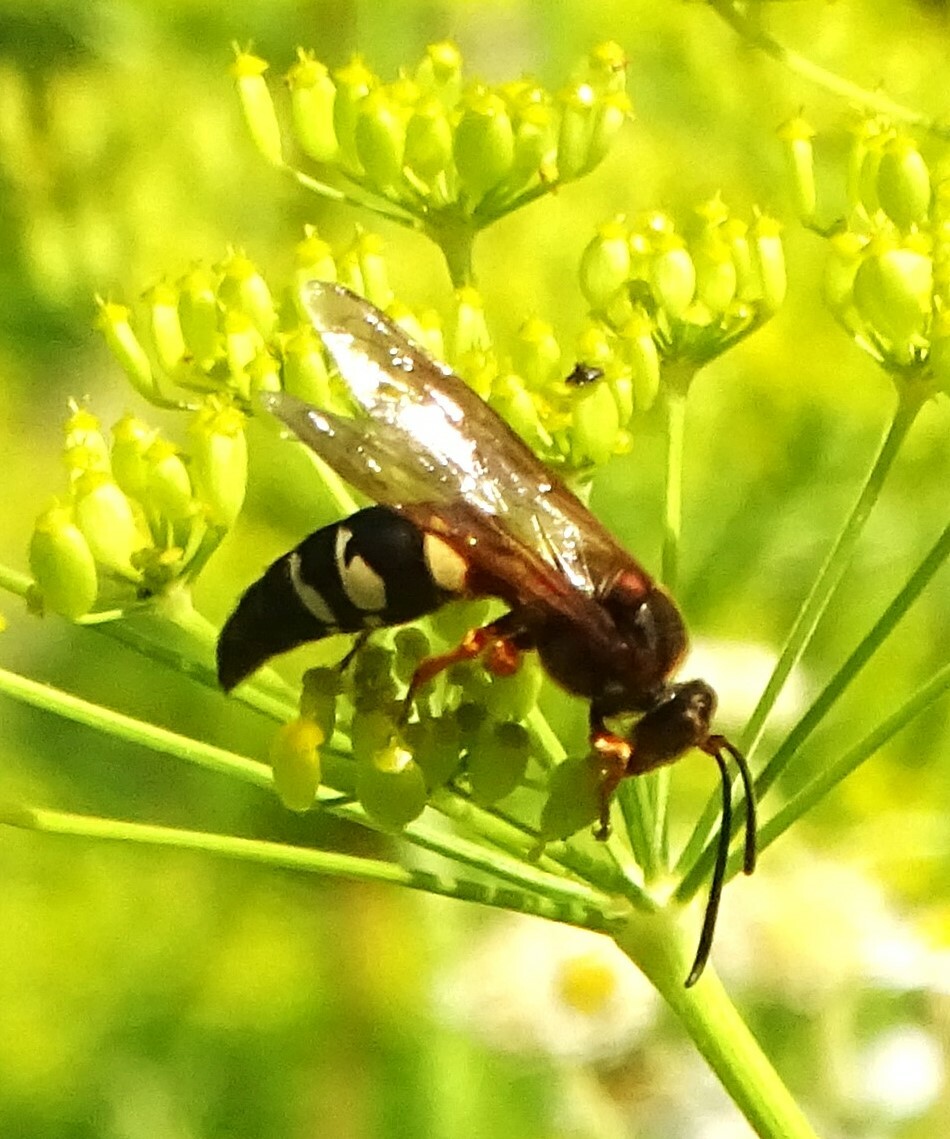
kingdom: Animalia
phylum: Arthropoda
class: Insecta
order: Hymenoptera
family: Crabronidae
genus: Sphecius
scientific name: Sphecius speciosus
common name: Cicada killer
